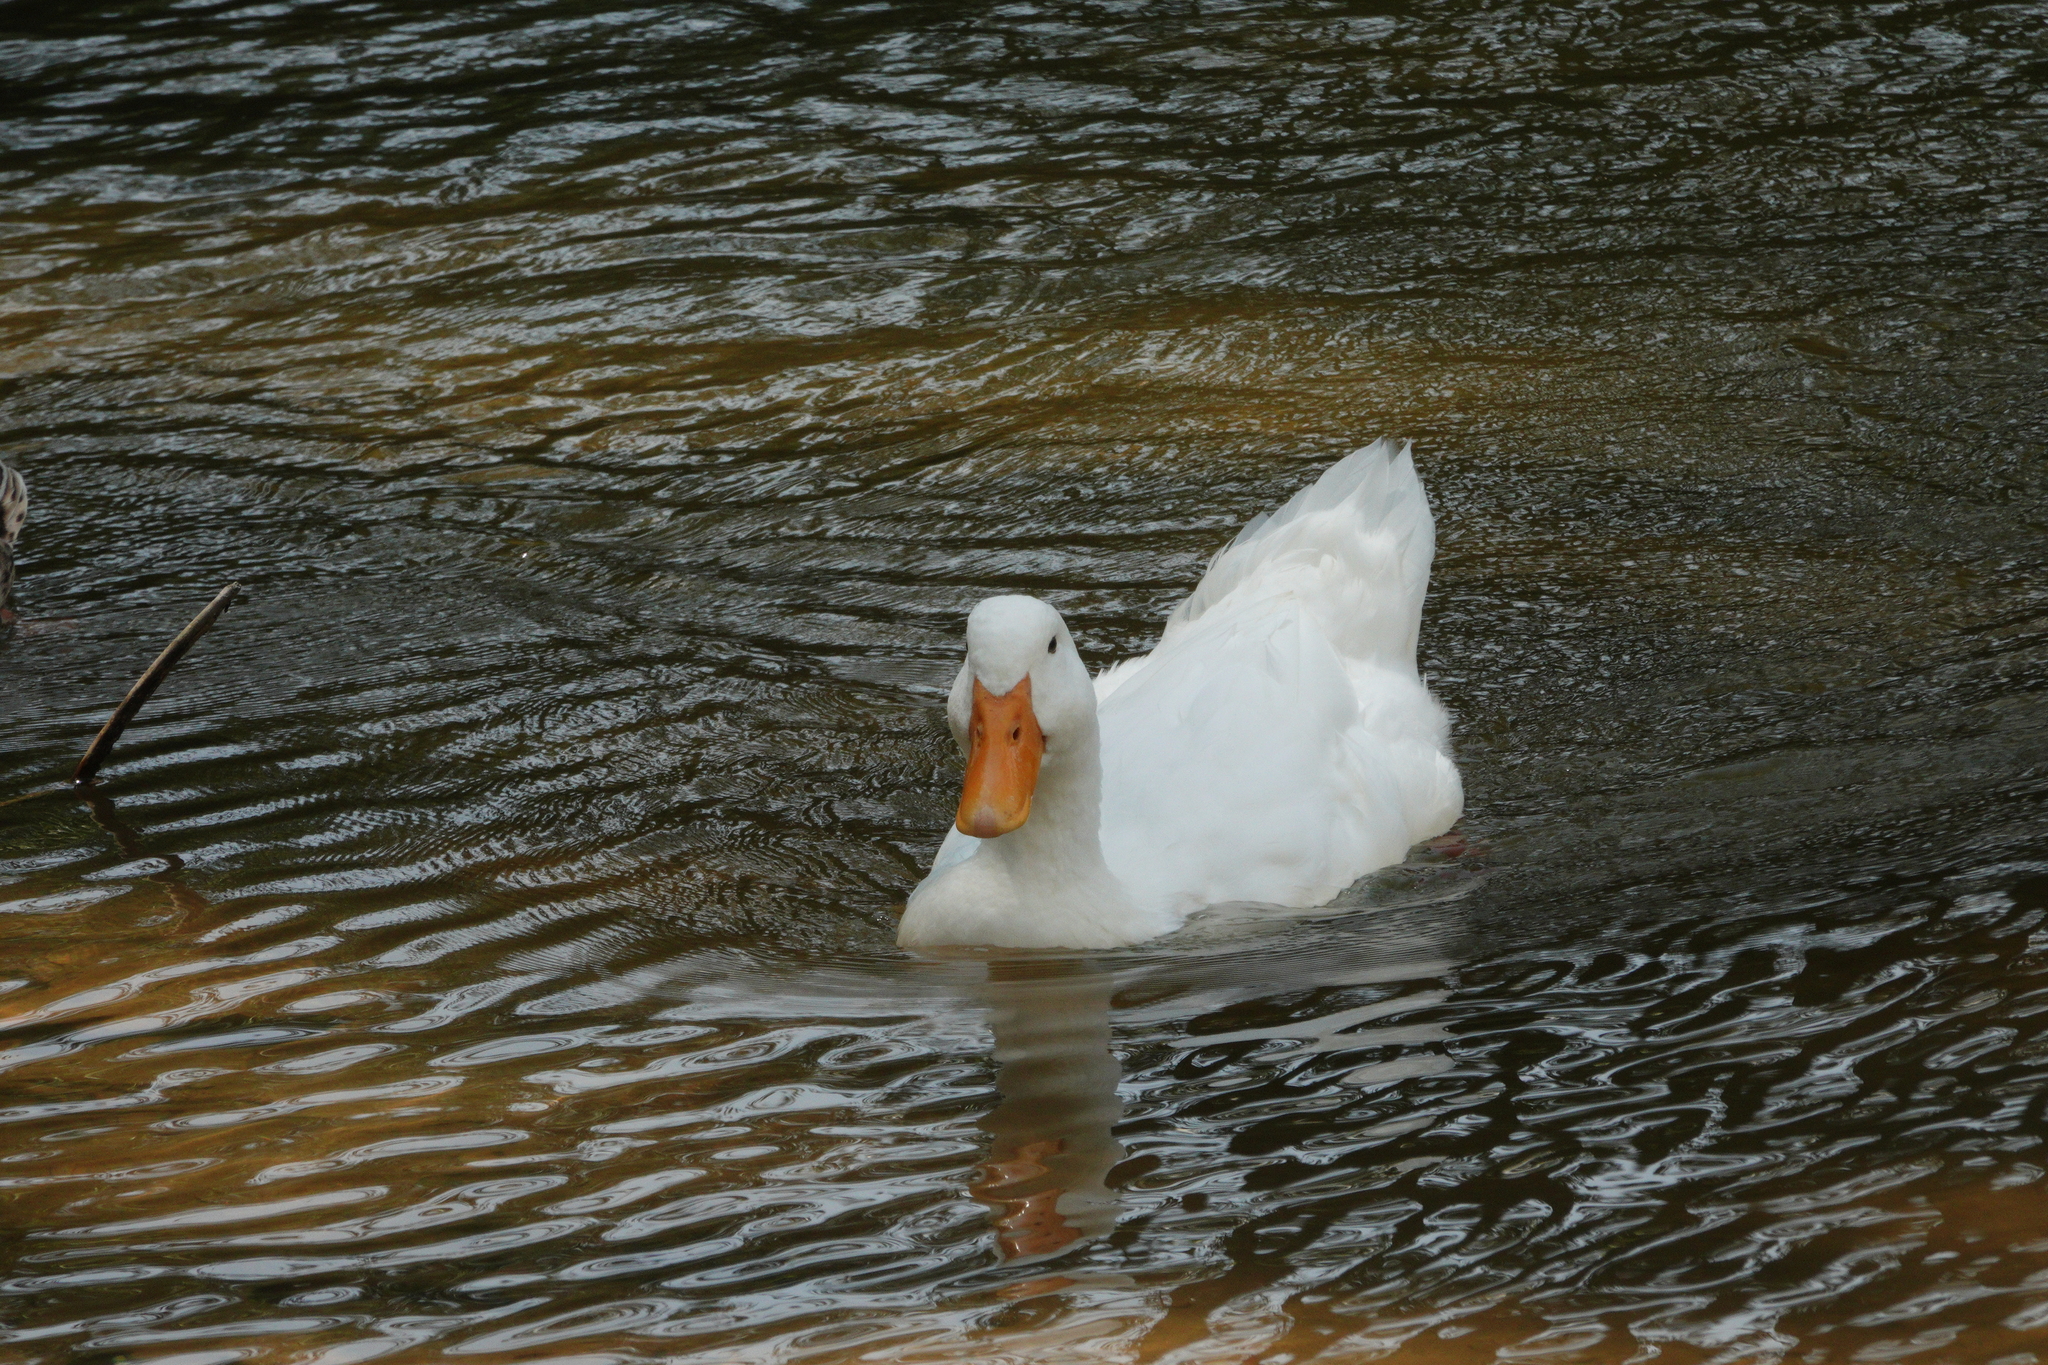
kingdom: Animalia
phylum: Chordata
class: Aves
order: Anseriformes
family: Anatidae
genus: Anas
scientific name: Anas platyrhynchos
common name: Mallard
